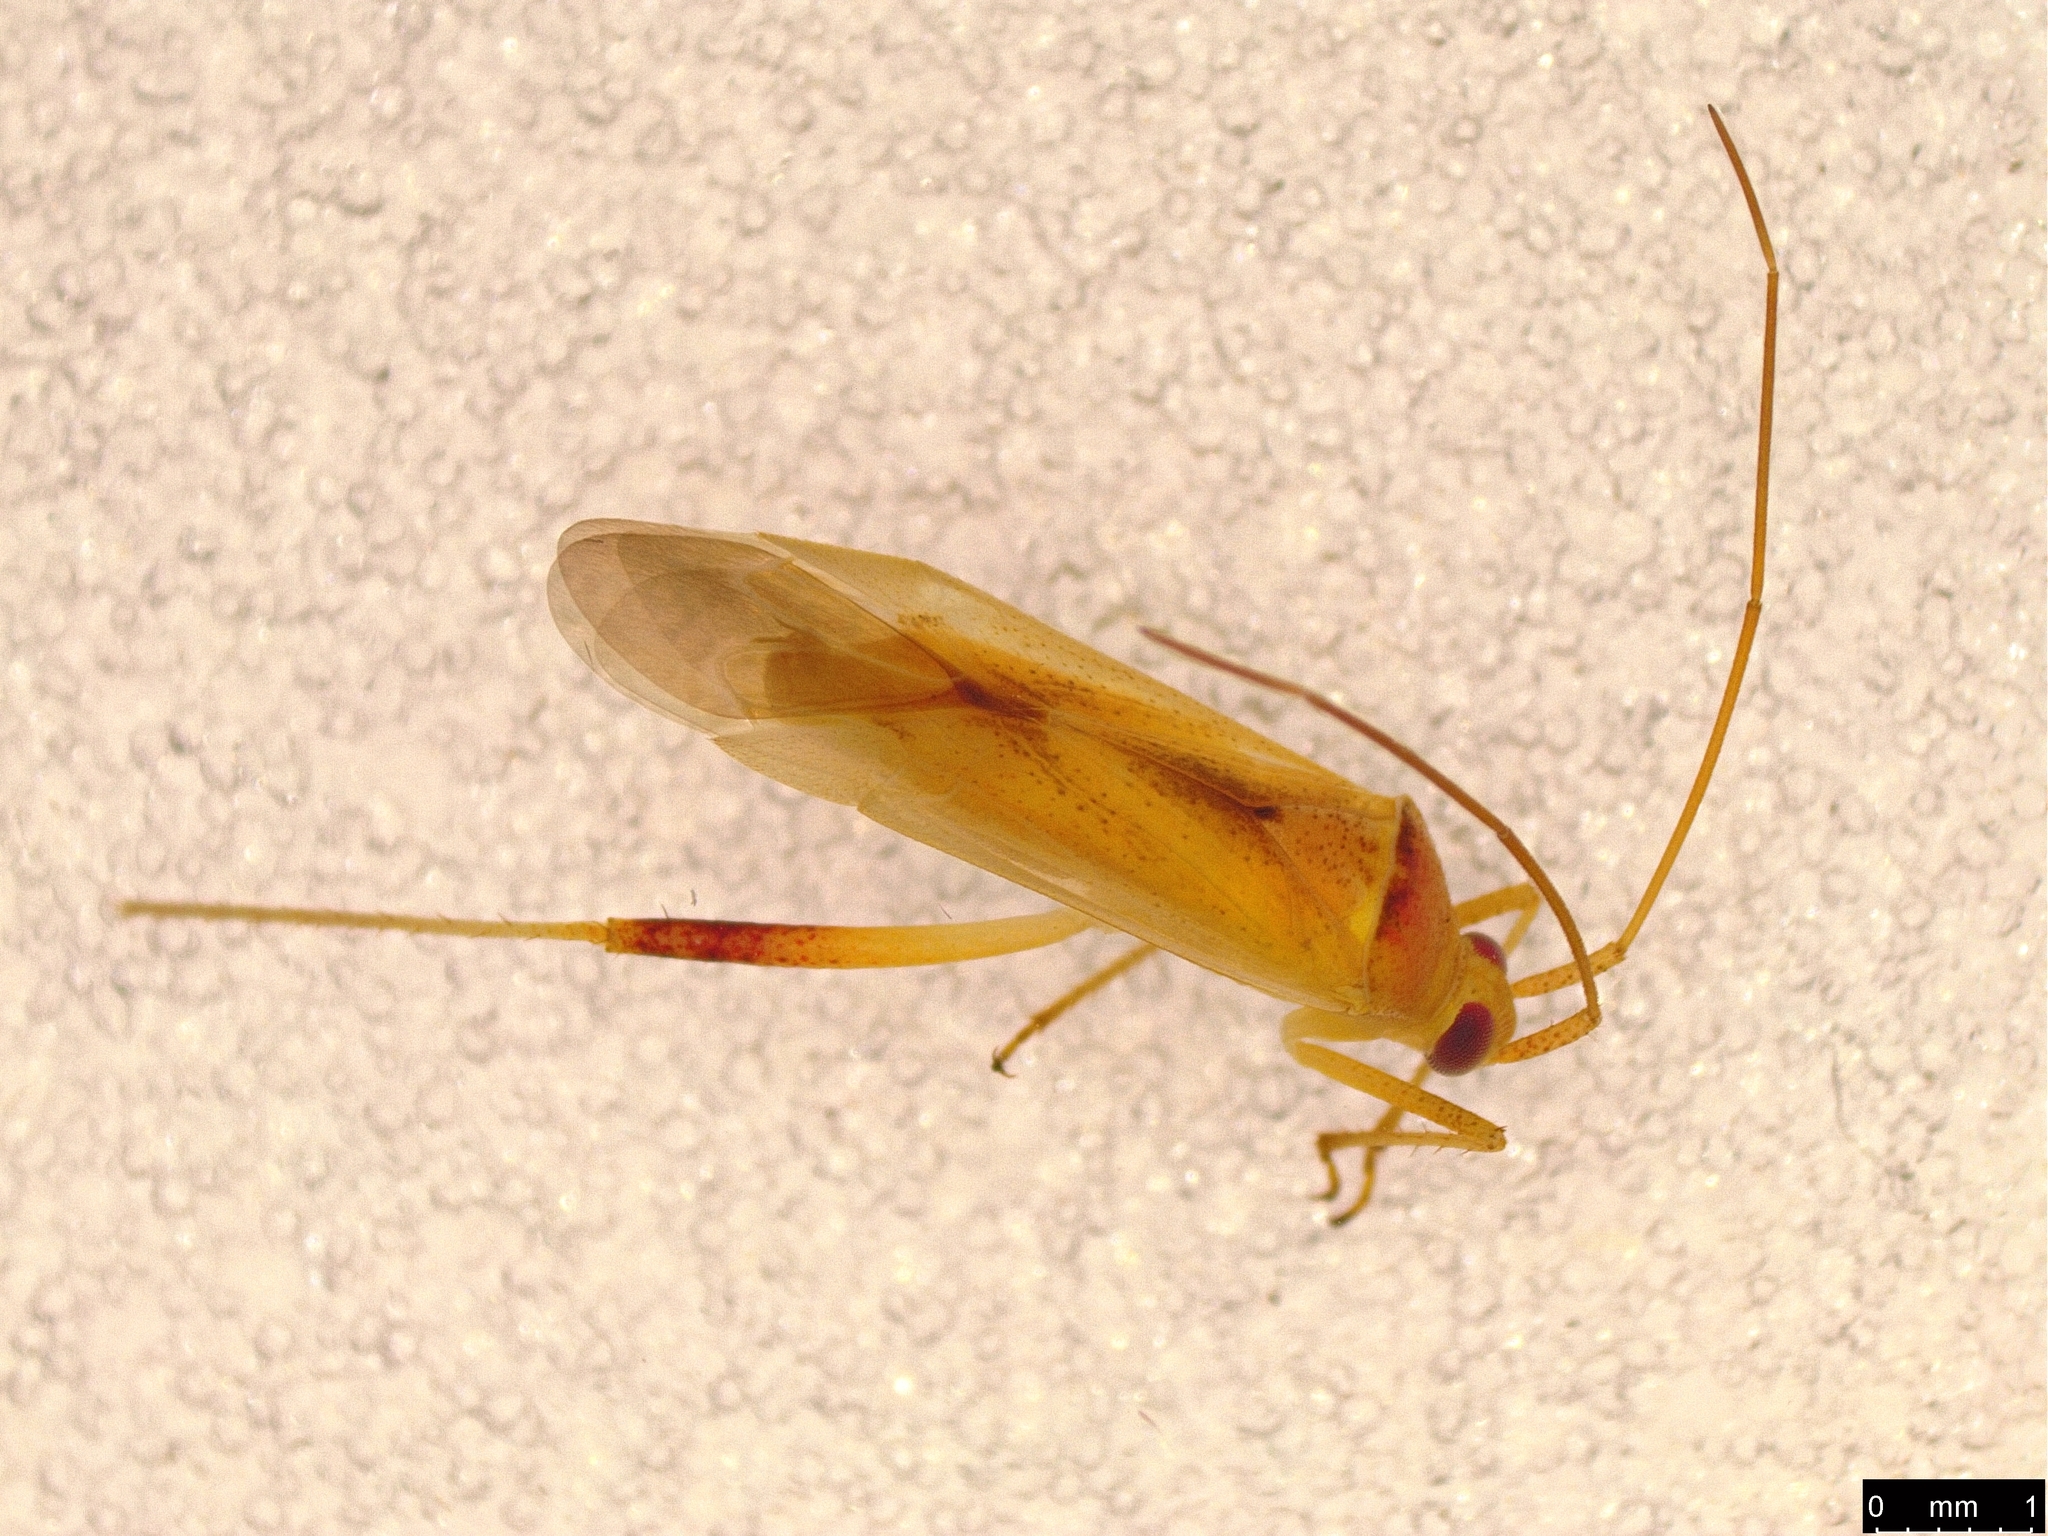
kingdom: Animalia
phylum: Arthropoda
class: Insecta
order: Hemiptera
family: Miridae
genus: Creontiades
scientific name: Creontiades dilutus
